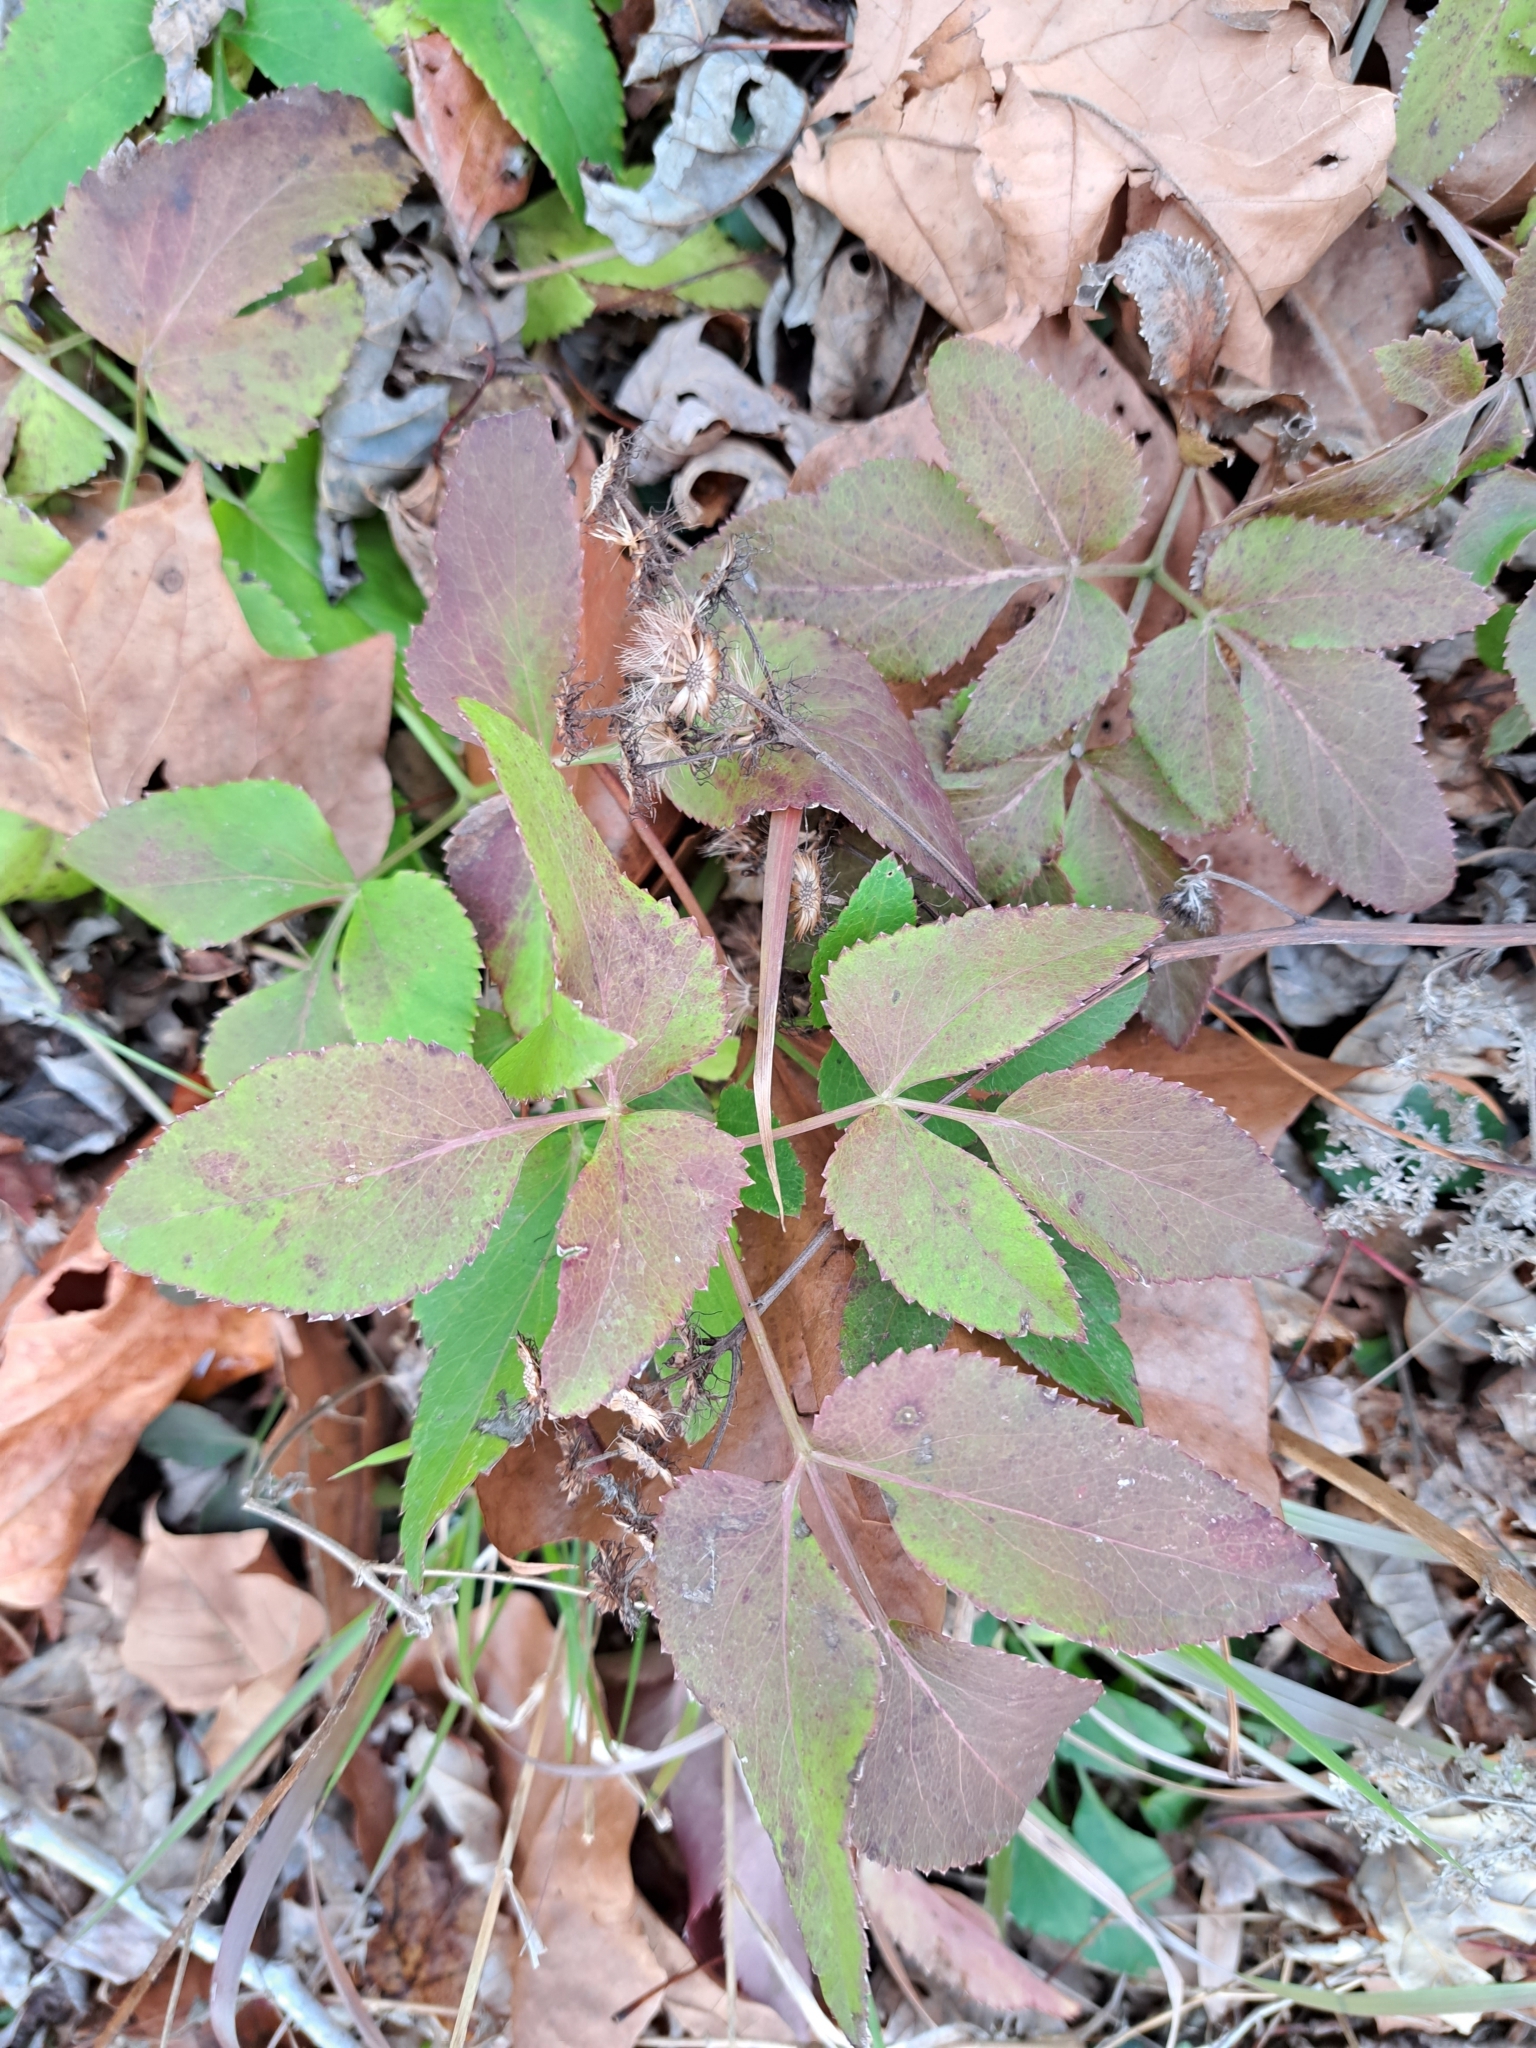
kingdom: Plantae
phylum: Tracheophyta
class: Magnoliopsida
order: Apiales
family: Apiaceae
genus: Zizia
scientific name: Zizia aurea
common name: Golden alexanders
